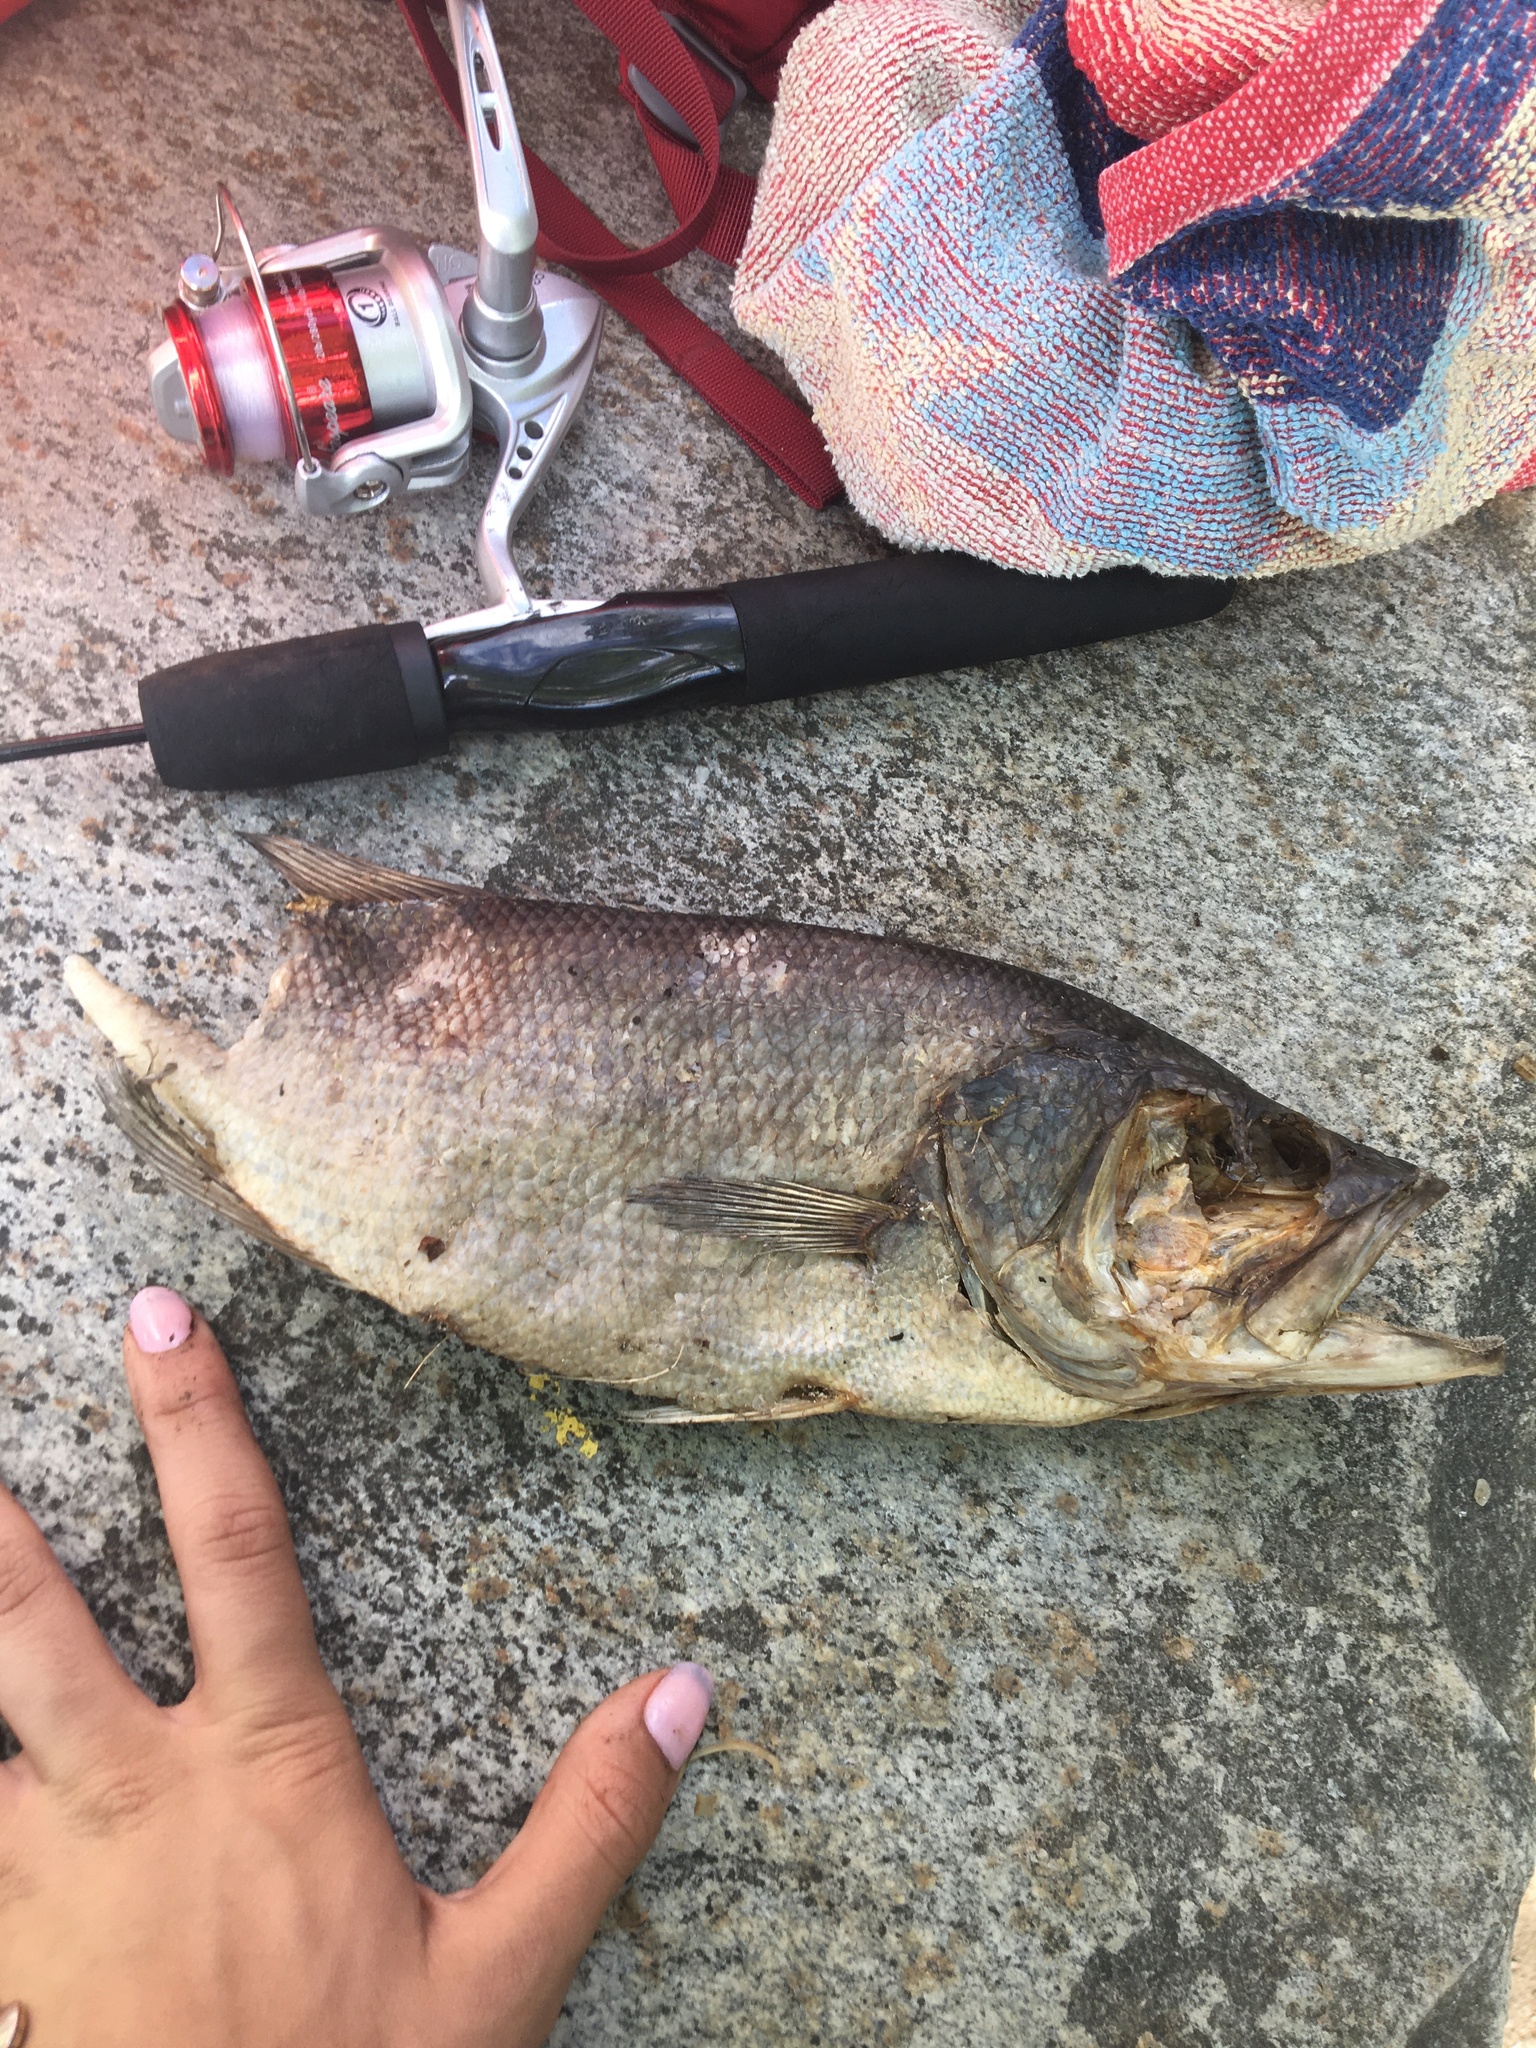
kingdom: Animalia
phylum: Chordata
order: Perciformes
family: Centrarchidae
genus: Micropterus
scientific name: Micropterus
